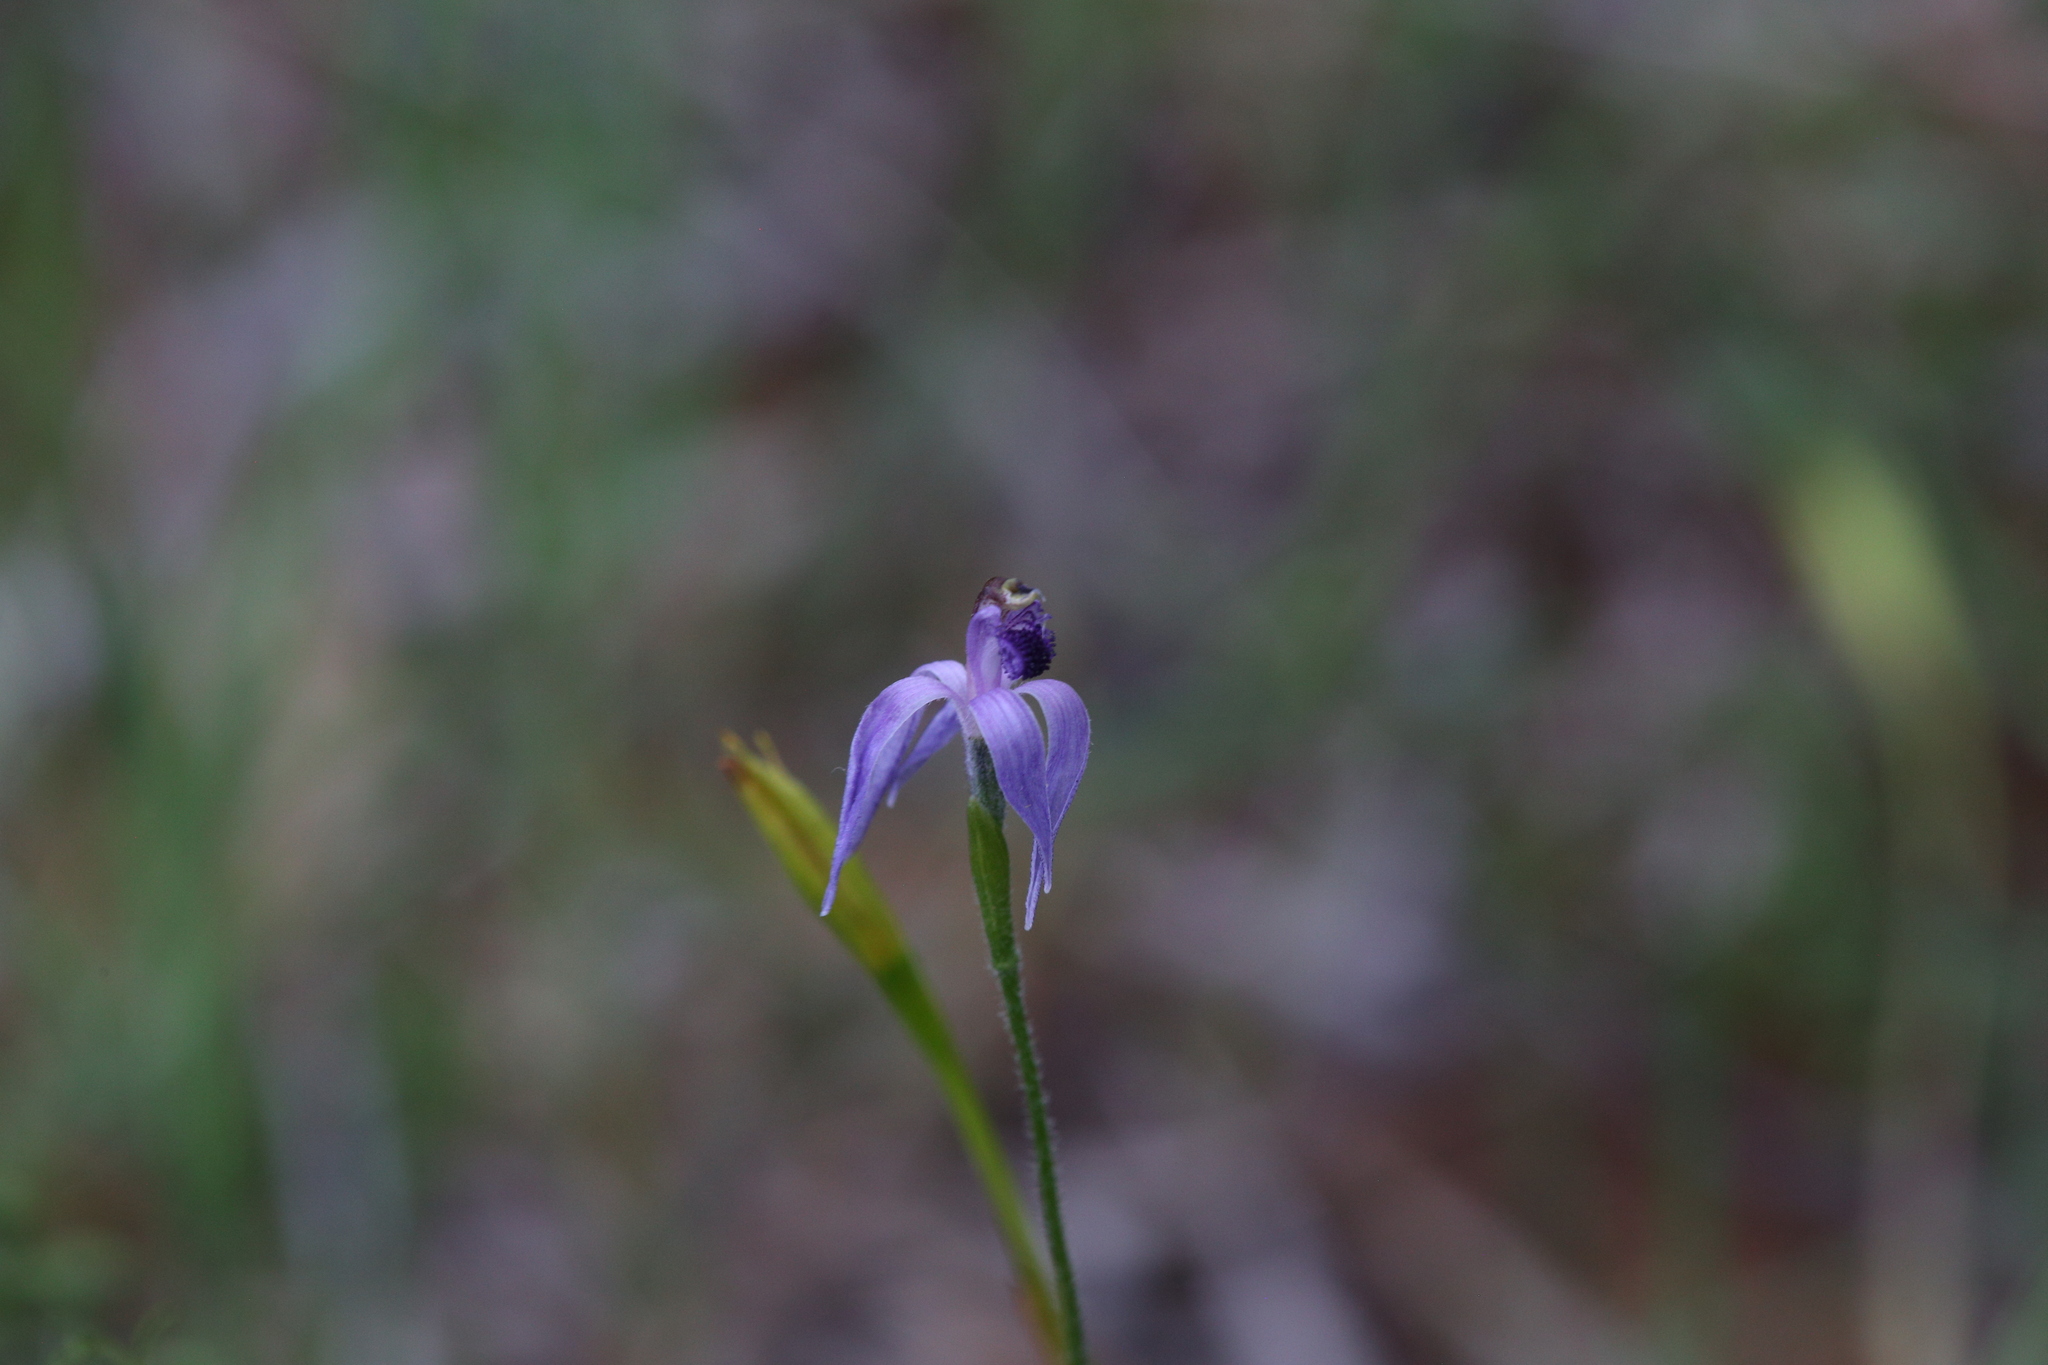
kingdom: Plantae
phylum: Tracheophyta
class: Liliopsida
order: Asparagales
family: Orchidaceae
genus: Pheladenia
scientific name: Pheladenia deformis
